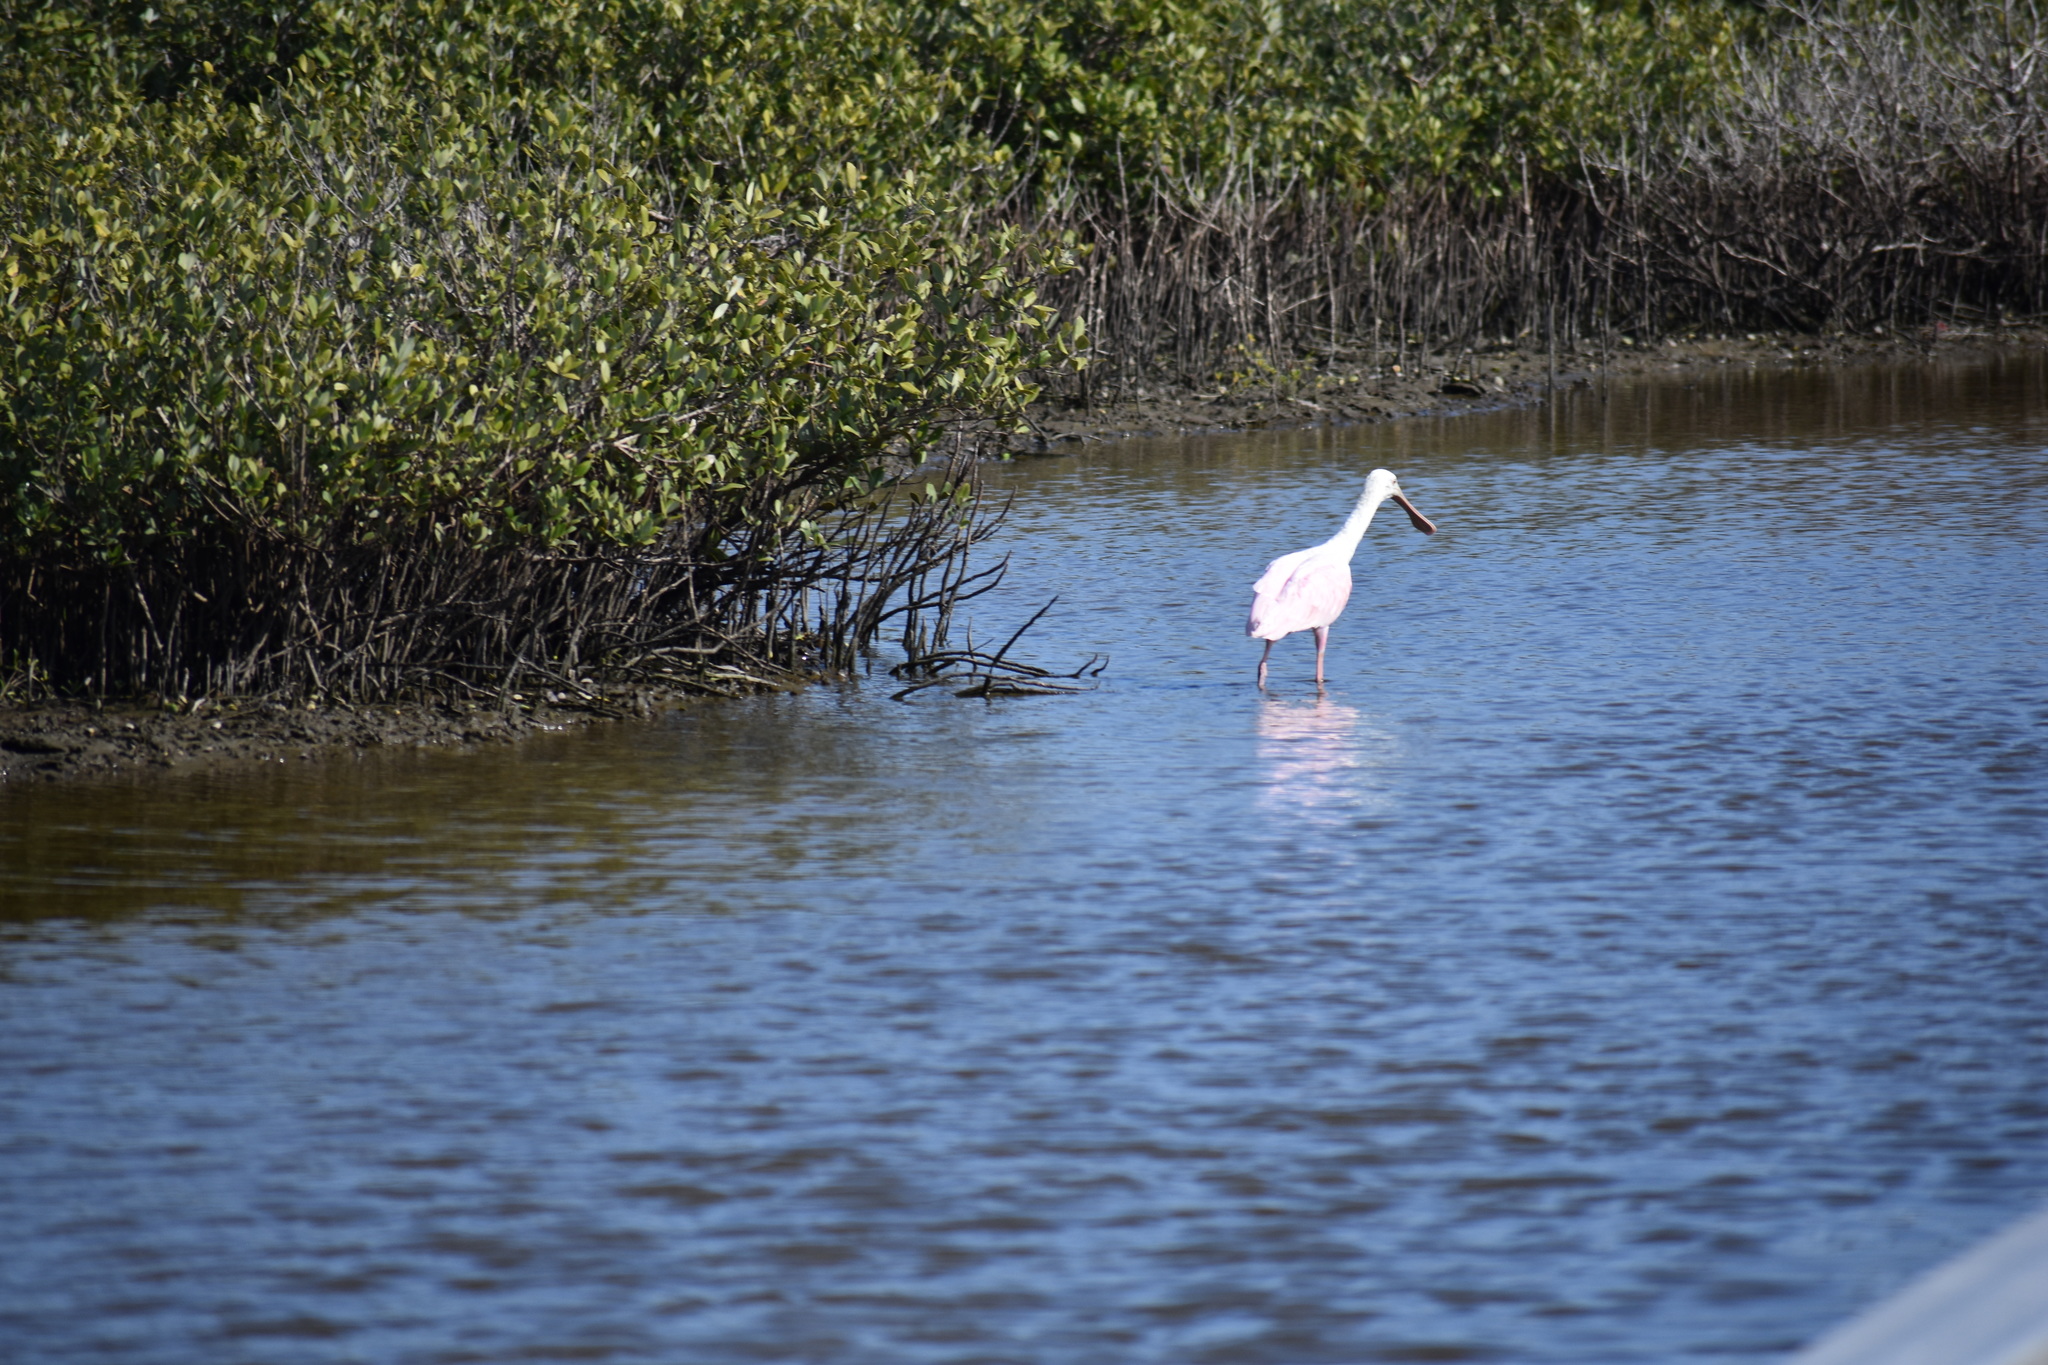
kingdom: Animalia
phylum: Chordata
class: Aves
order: Pelecaniformes
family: Threskiornithidae
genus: Platalea
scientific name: Platalea ajaja
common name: Roseate spoonbill
